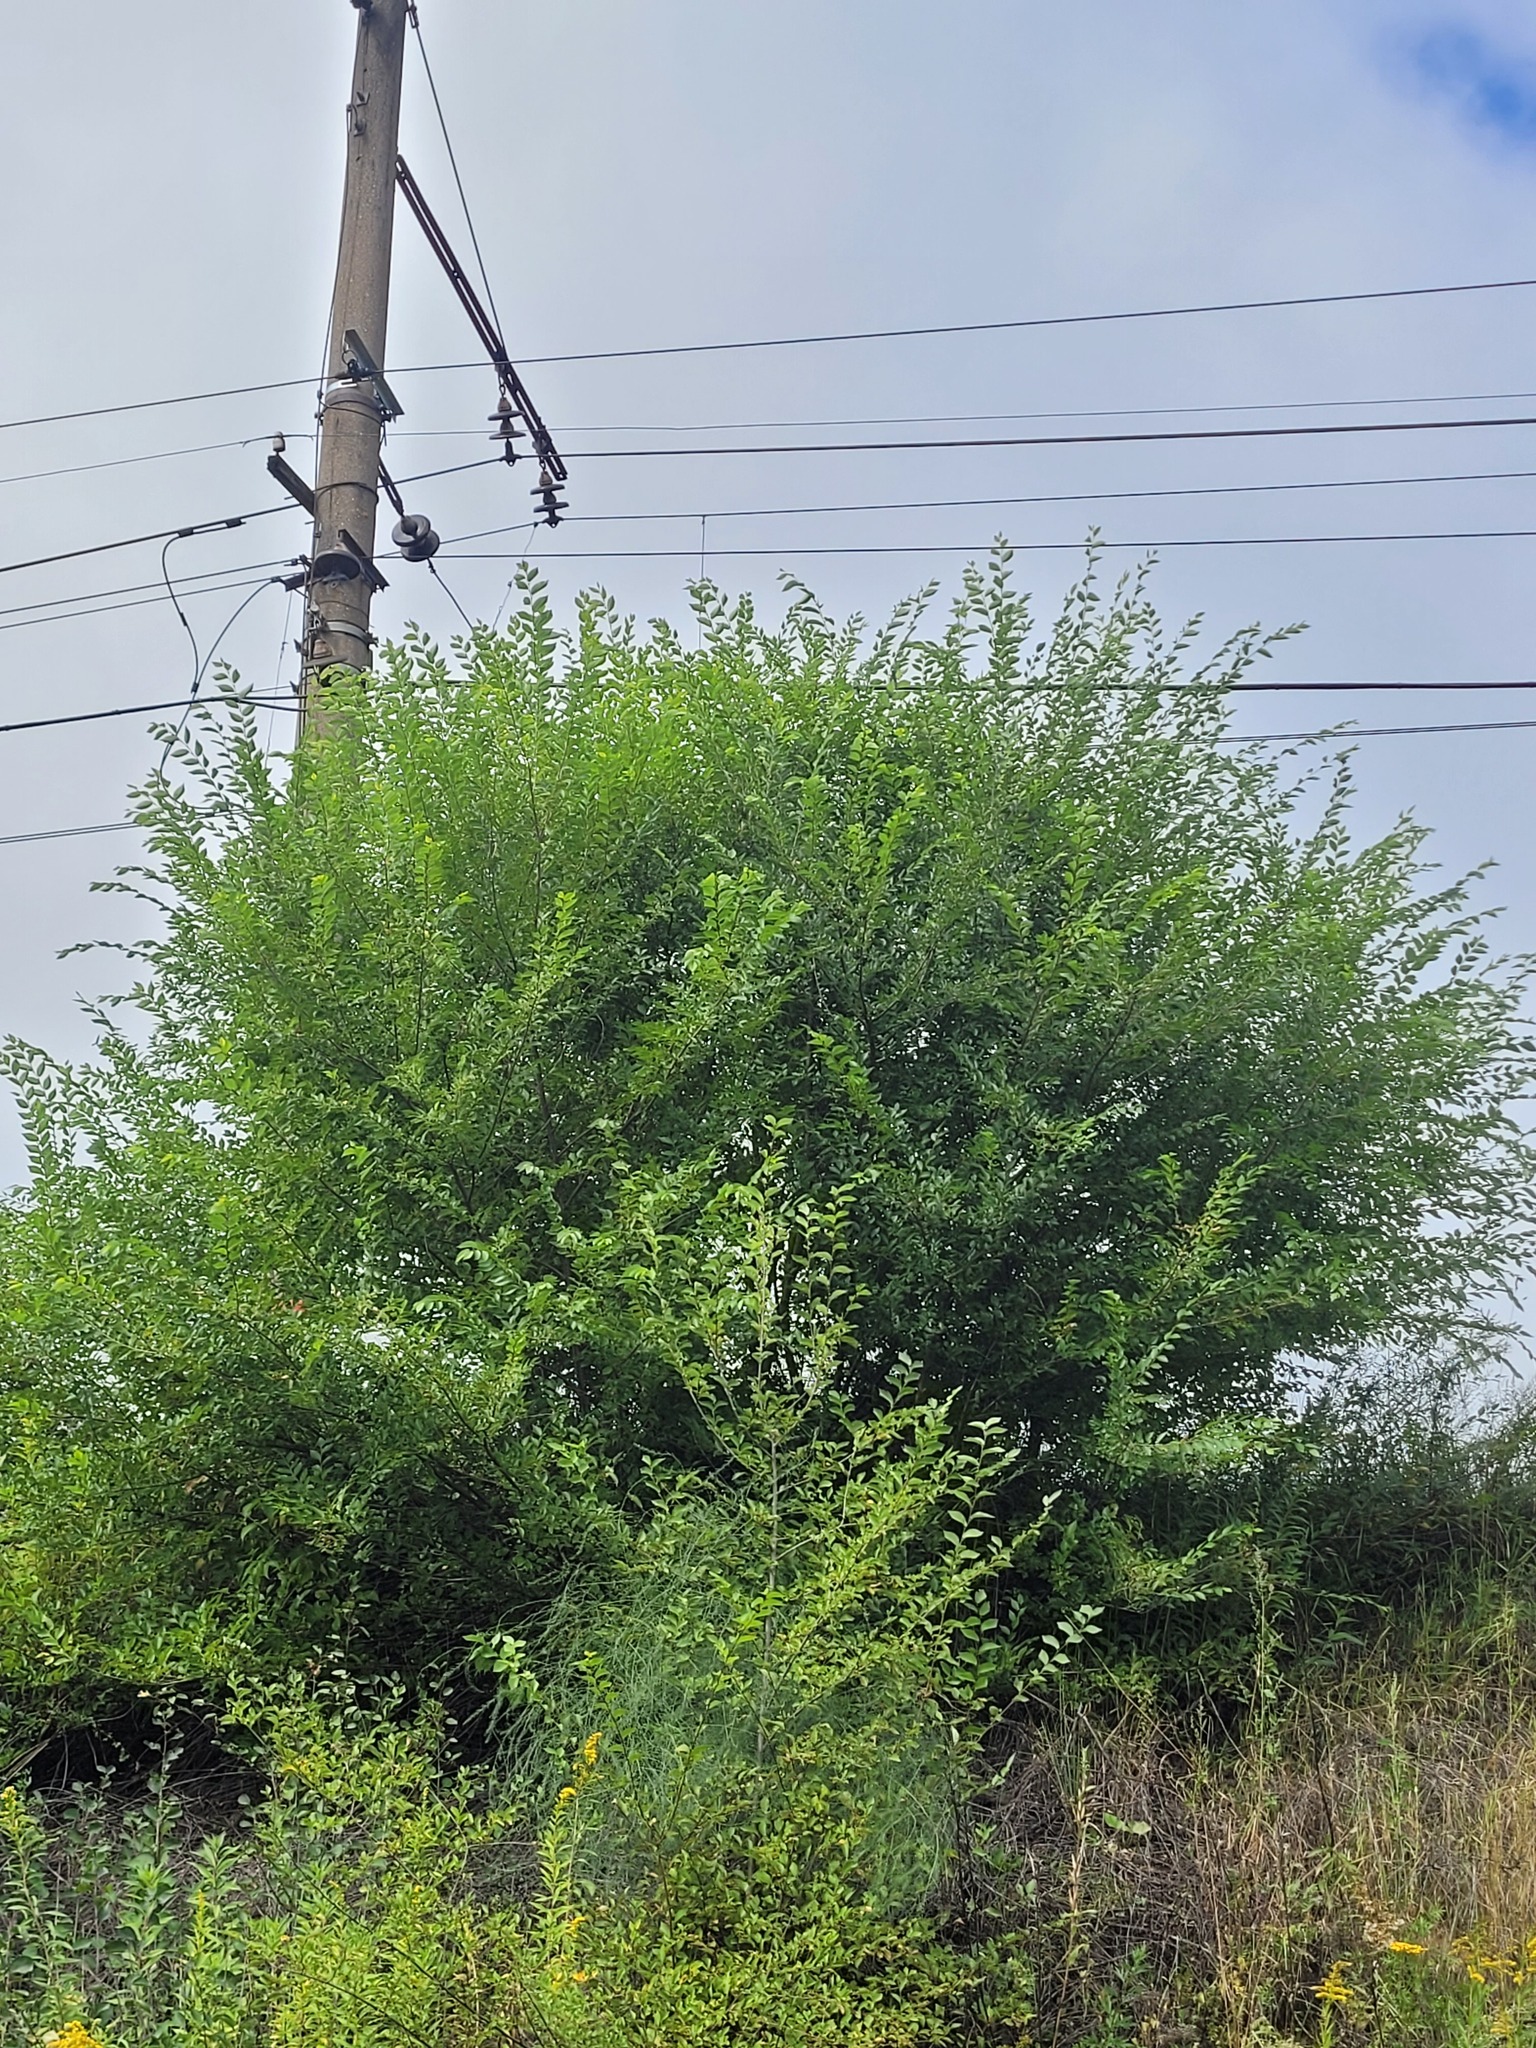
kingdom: Plantae
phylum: Tracheophyta
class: Magnoliopsida
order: Rosales
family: Ulmaceae
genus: Ulmus
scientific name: Ulmus pumila
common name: Siberian elm
